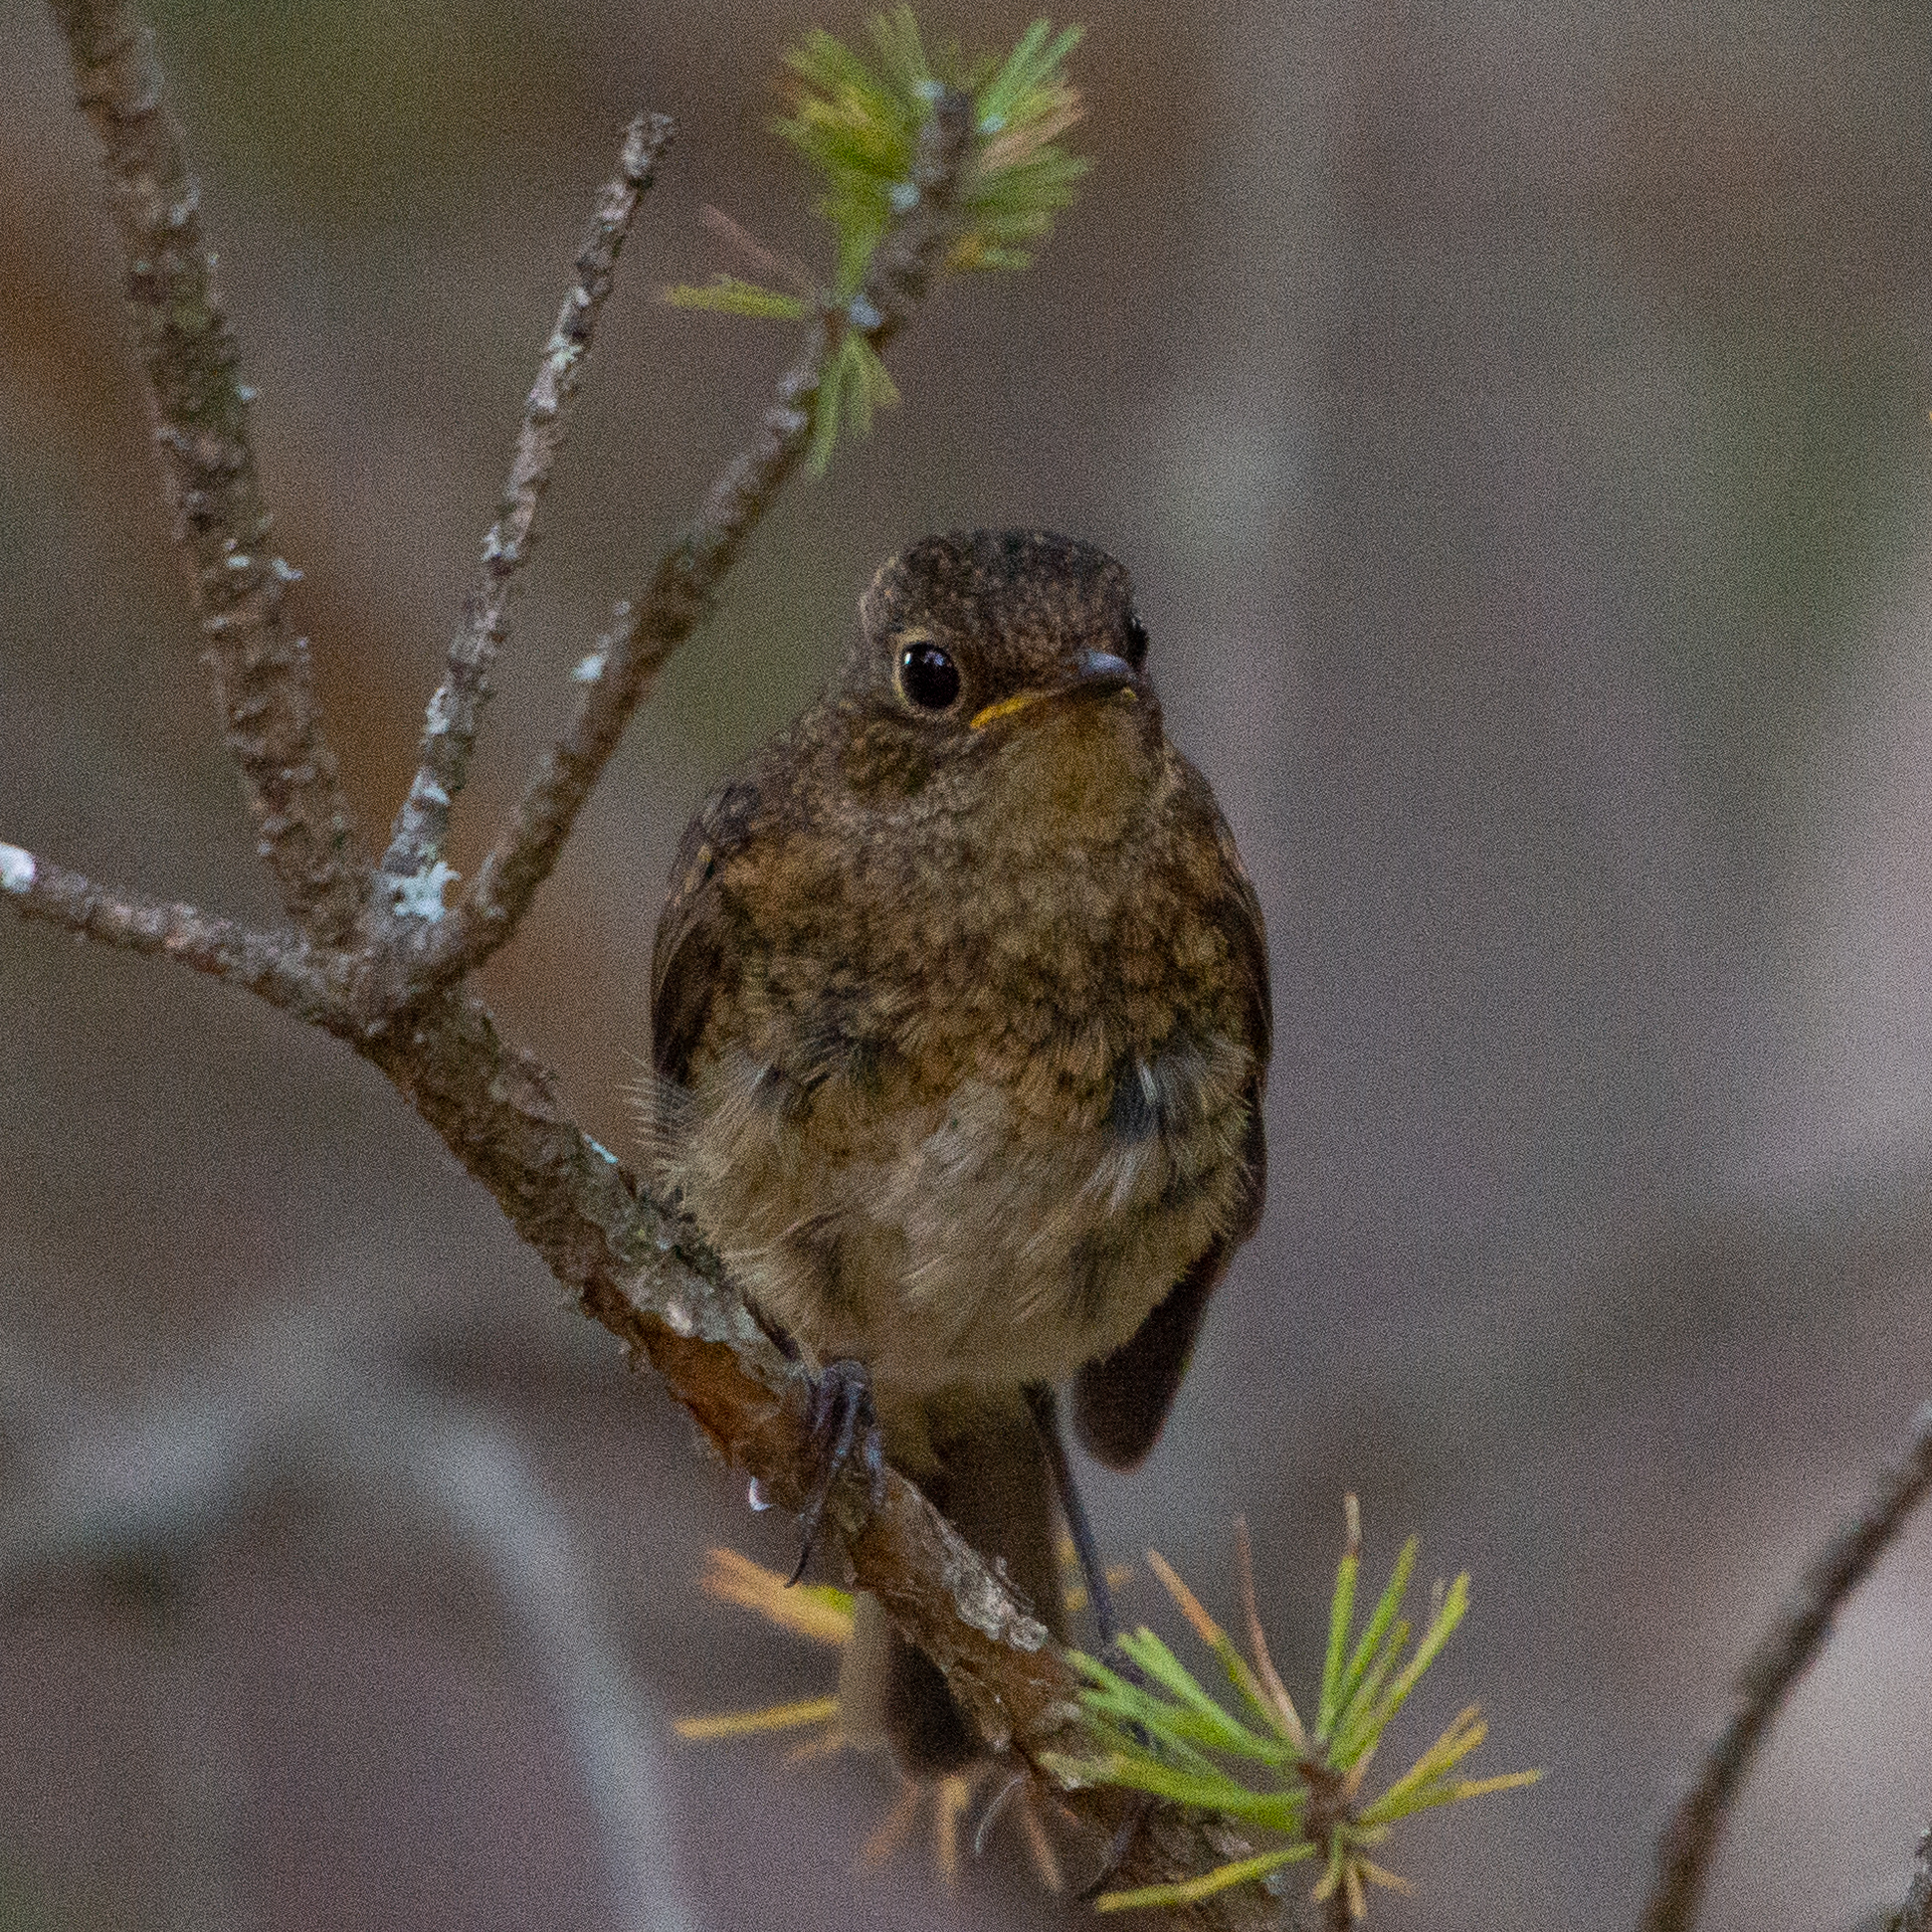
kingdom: Animalia
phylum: Chordata
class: Aves
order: Passeriformes
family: Muscicapidae
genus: Erithacus
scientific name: Erithacus rubecula
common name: European robin
